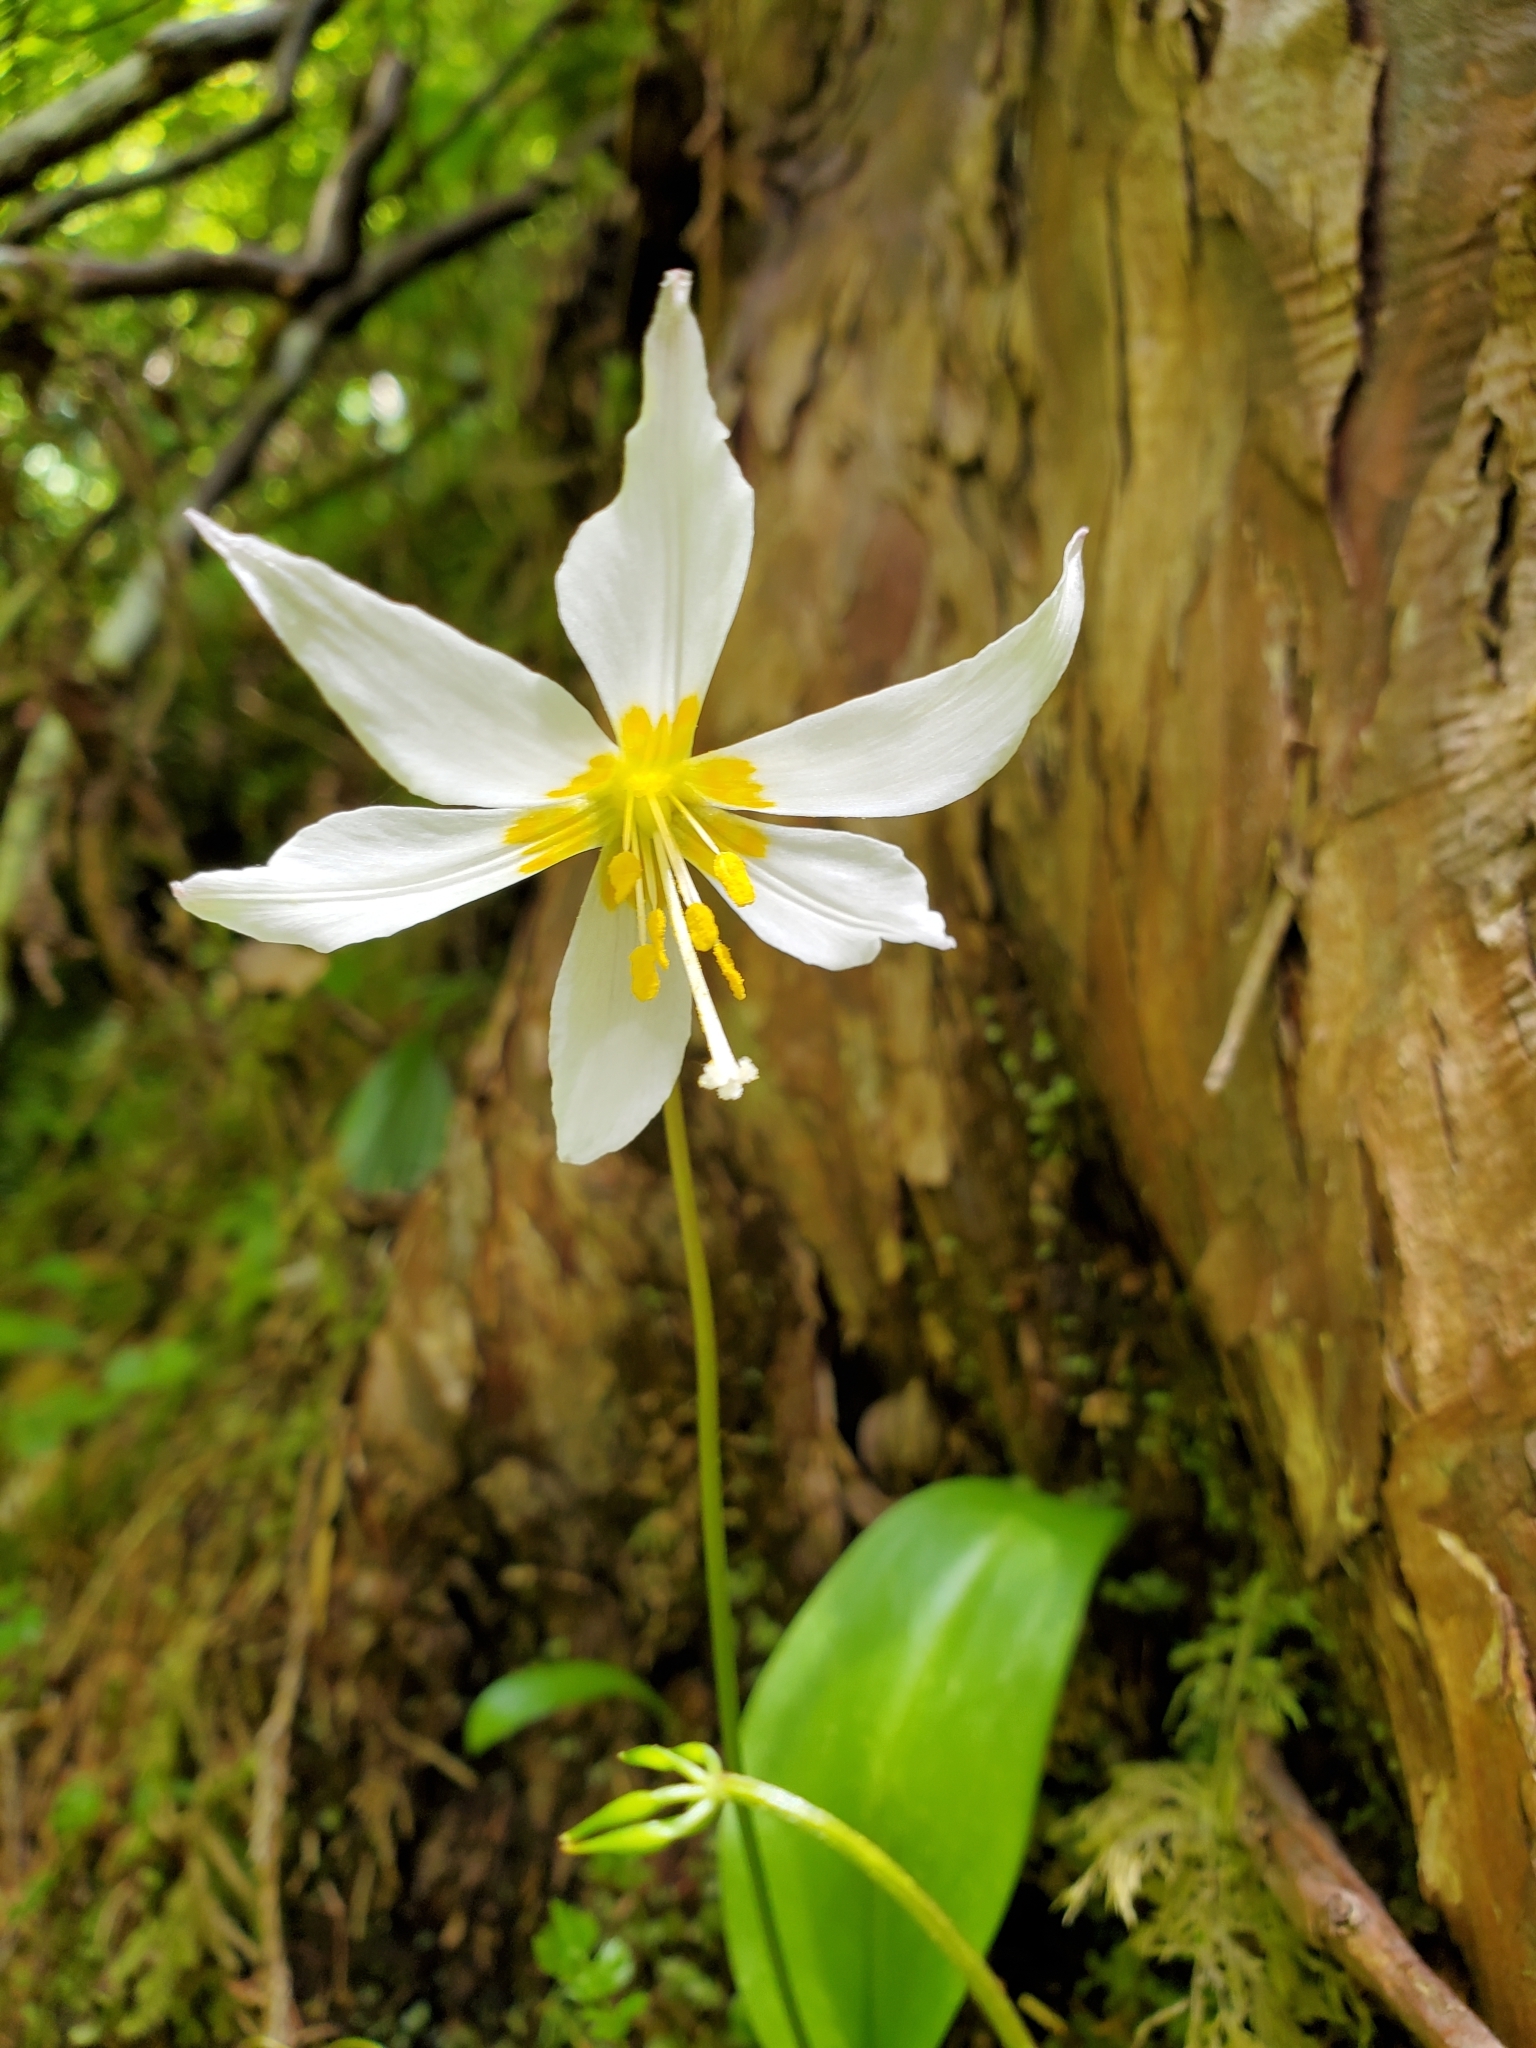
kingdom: Plantae
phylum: Tracheophyta
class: Liliopsida
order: Liliales
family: Liliaceae
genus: Erythronium
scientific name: Erythronium montanum
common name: Avalanche lily
